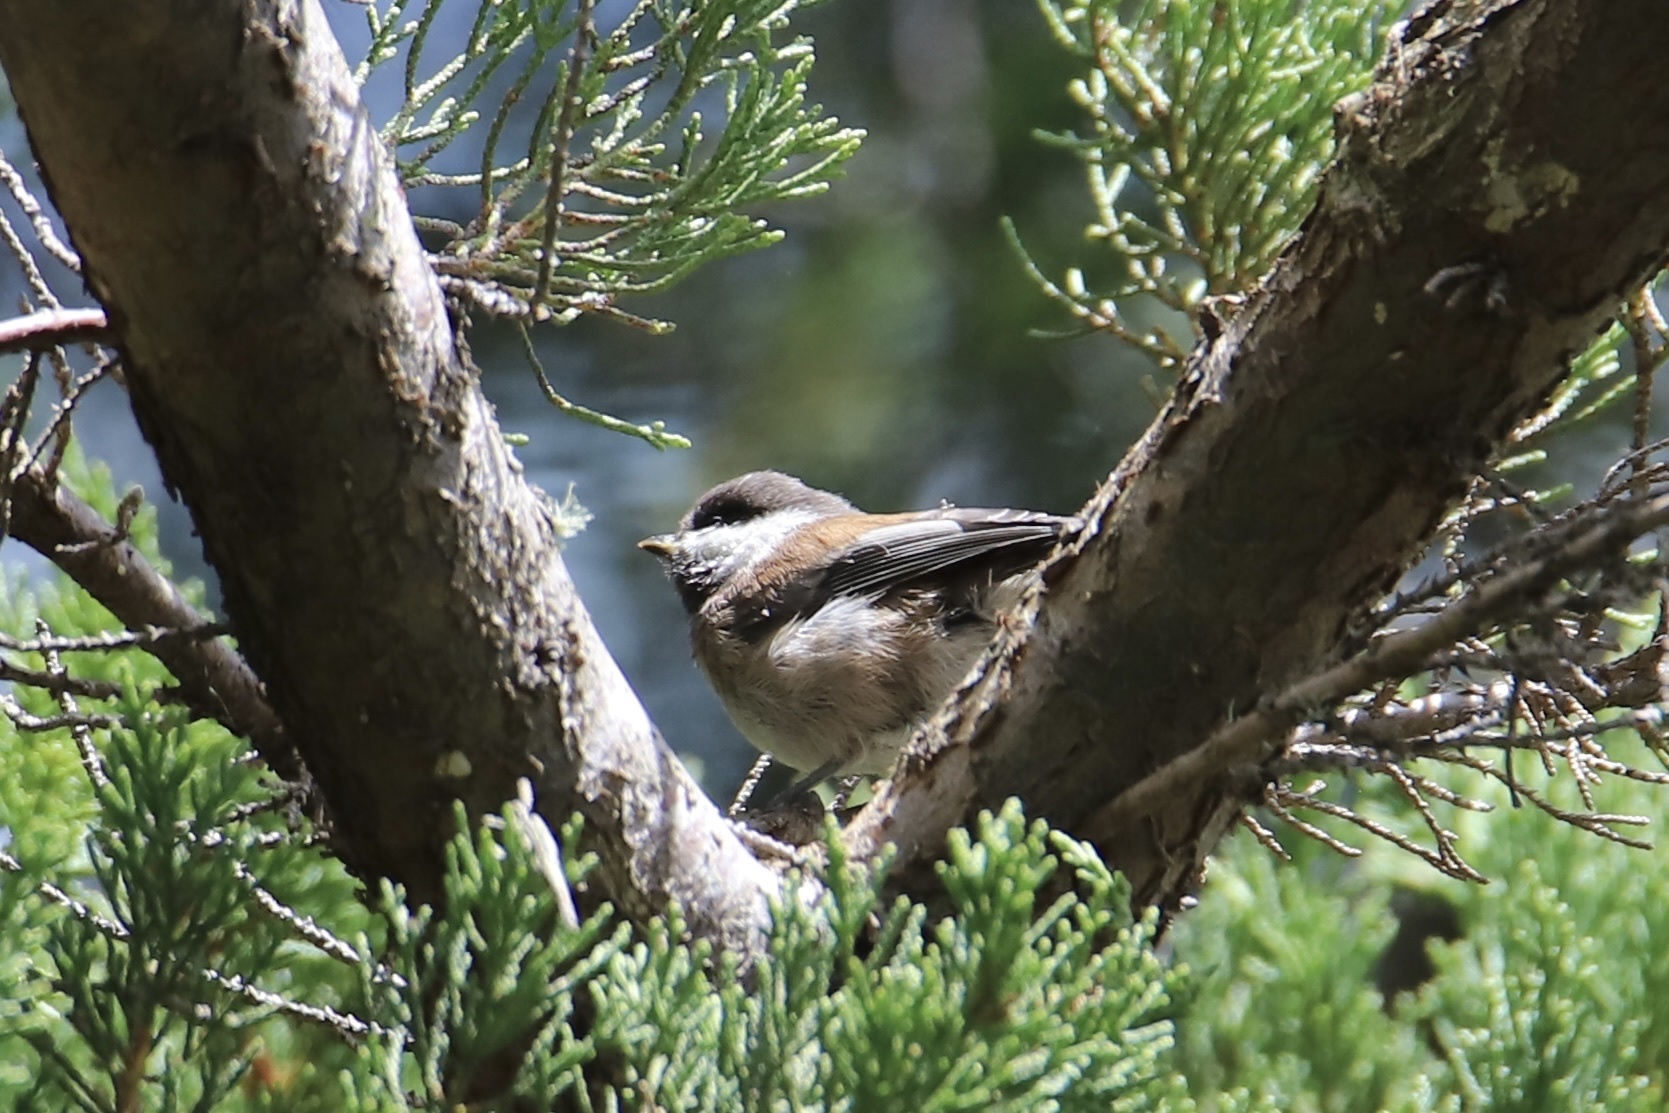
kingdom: Animalia
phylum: Chordata
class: Aves
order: Passeriformes
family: Paridae
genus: Poecile
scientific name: Poecile rufescens
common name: Chestnut-backed chickadee
